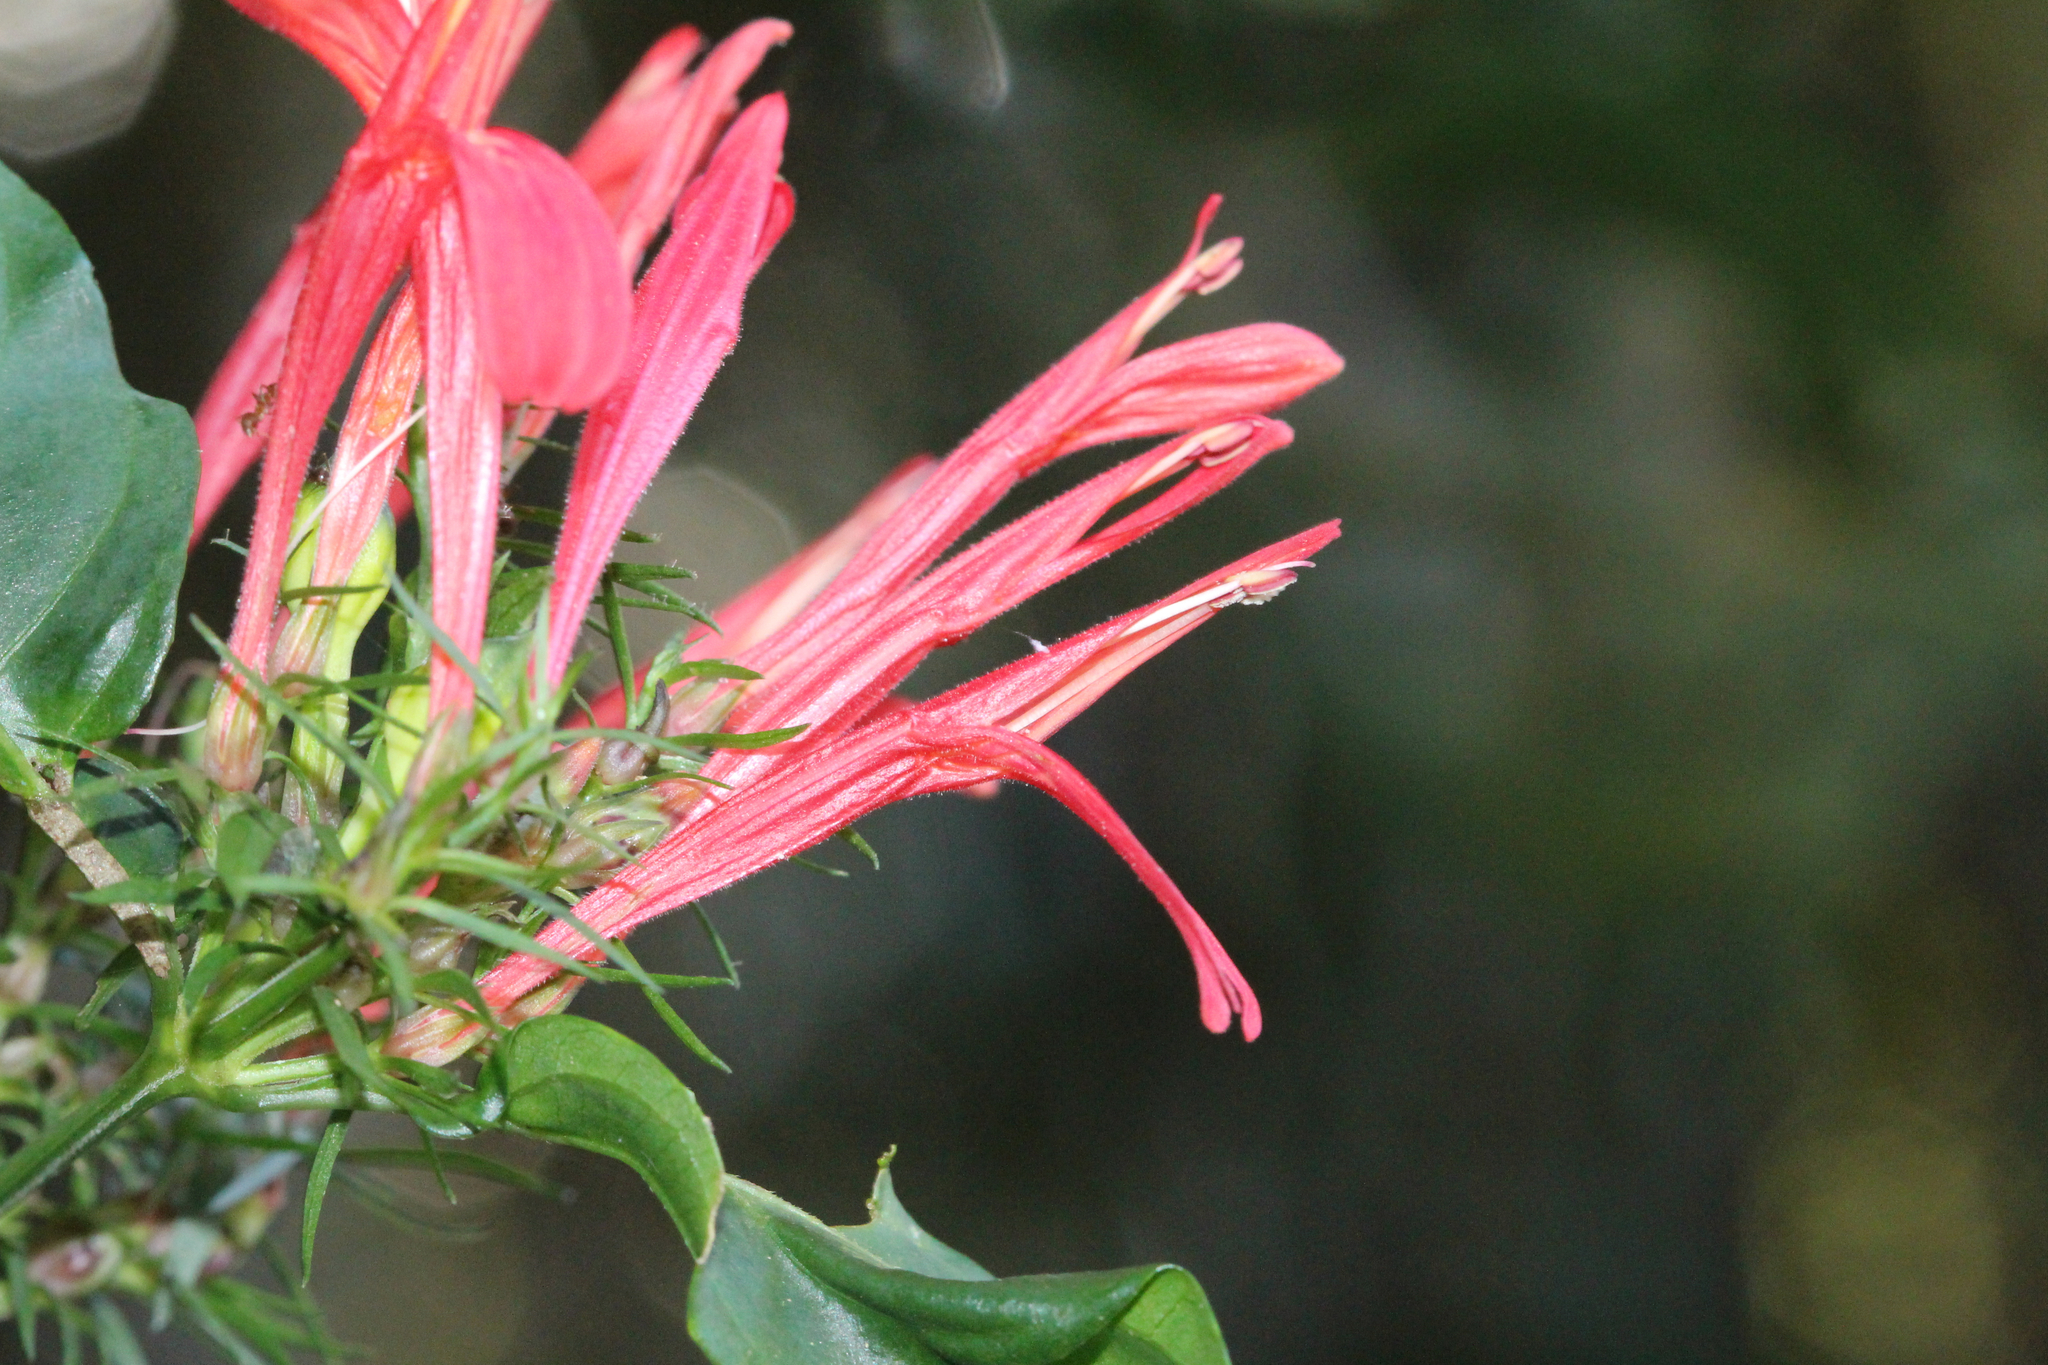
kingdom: Plantae
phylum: Tracheophyta
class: Magnoliopsida
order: Lamiales
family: Acanthaceae
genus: Justicia
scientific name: Justicia brasiliana
